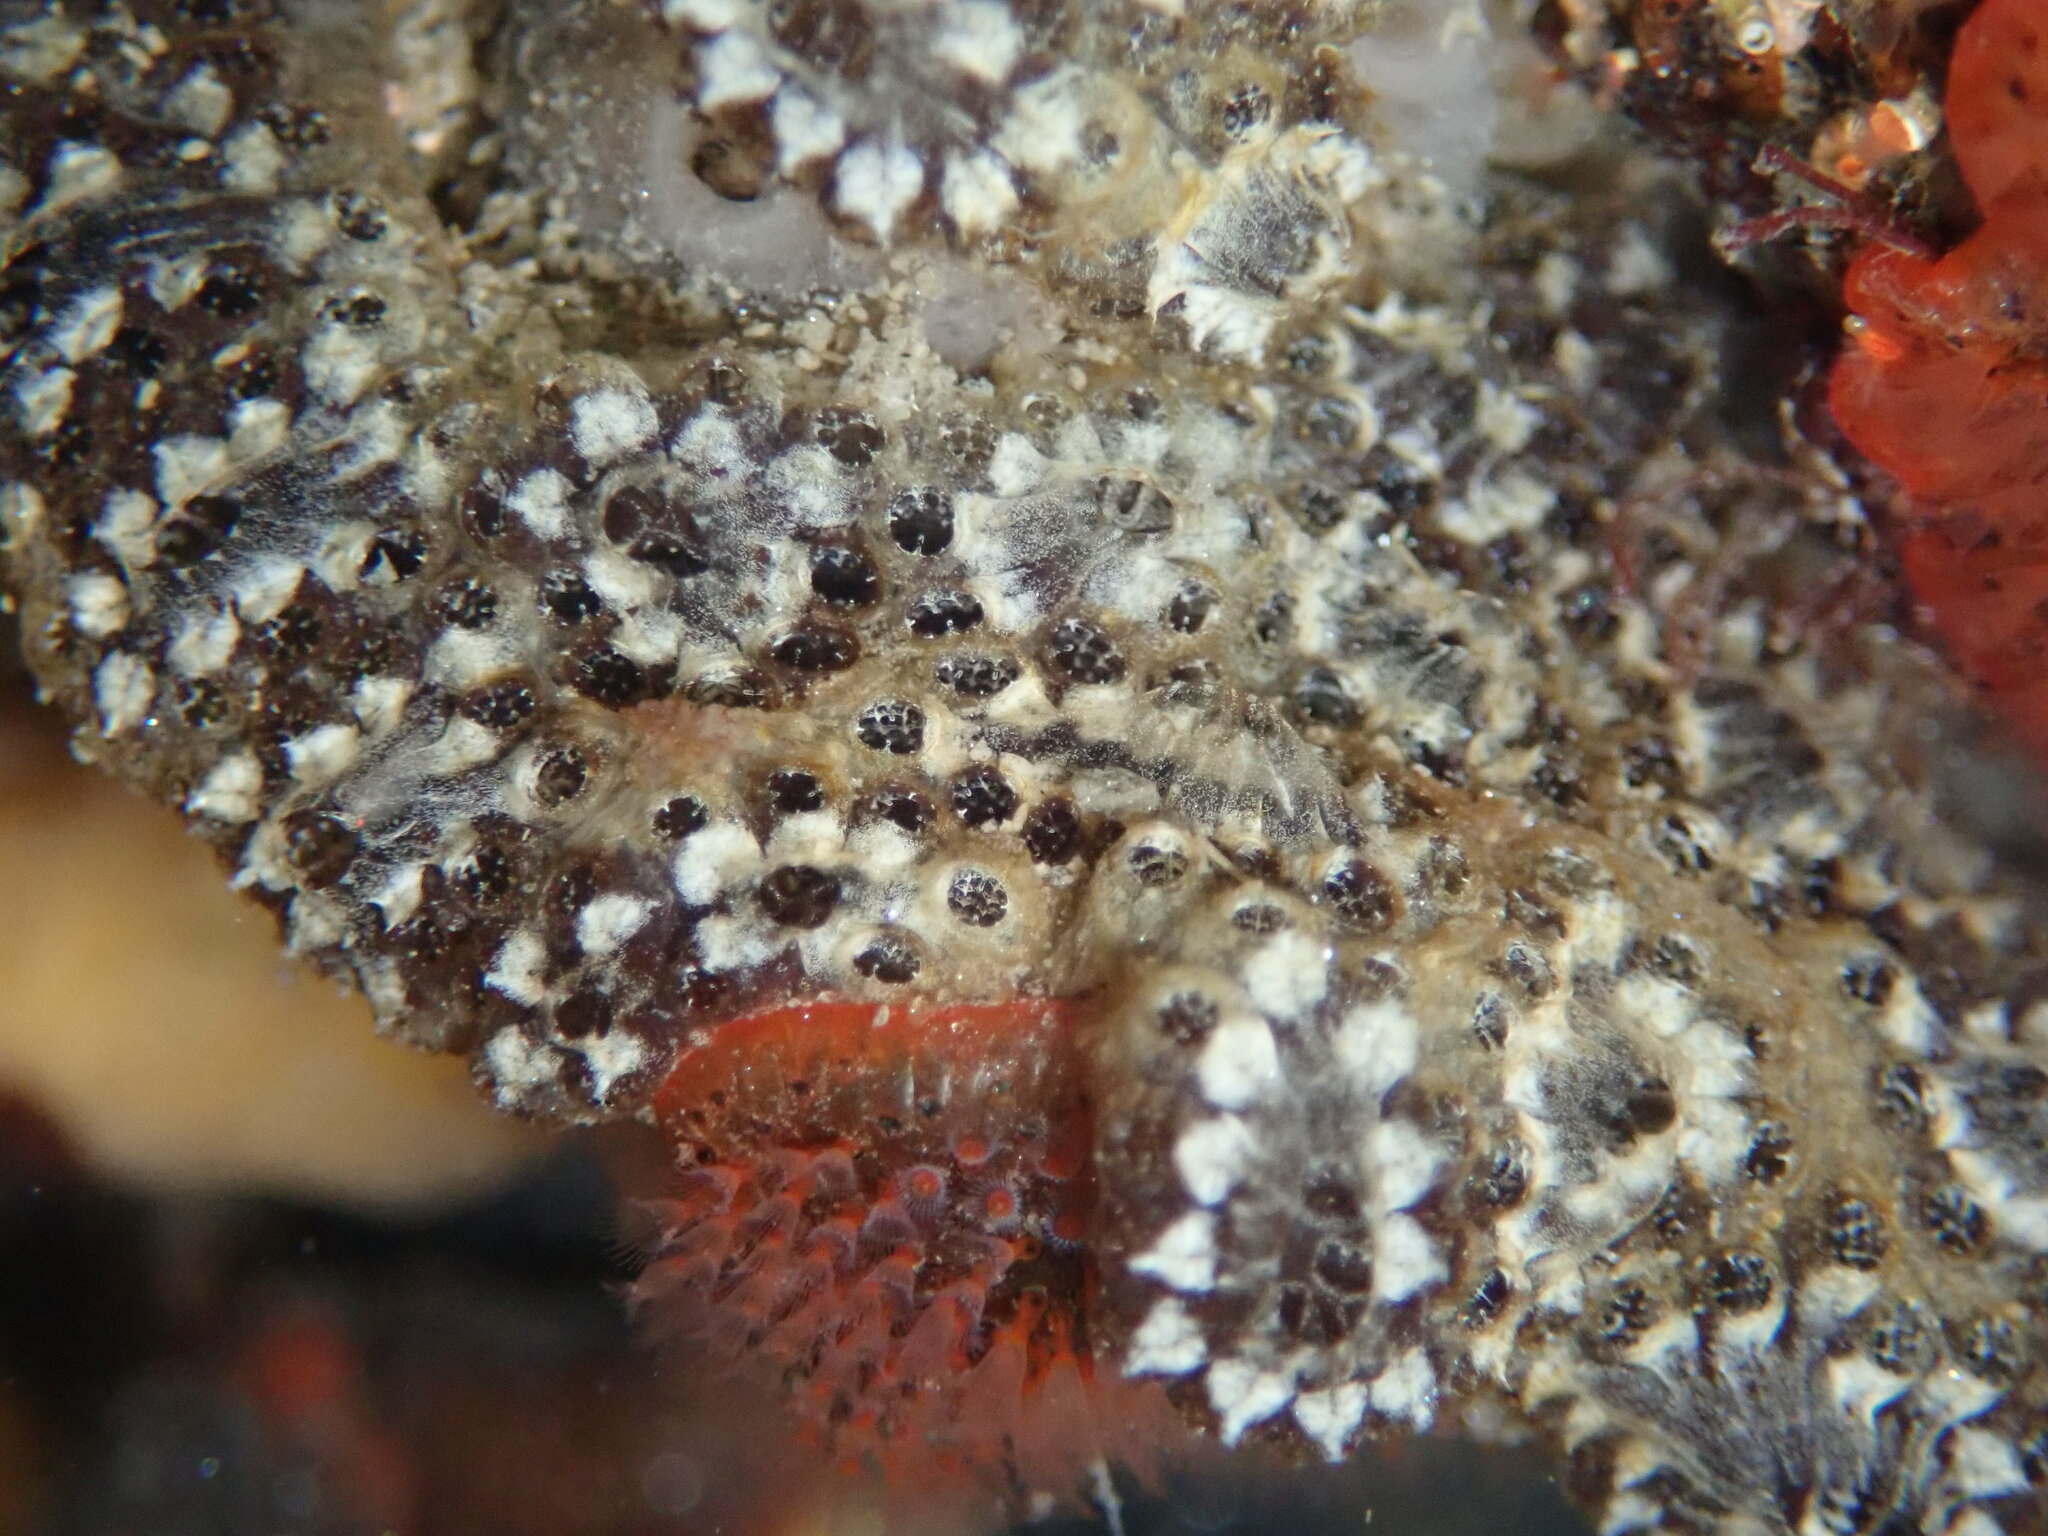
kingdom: Animalia
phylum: Chordata
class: Ascidiacea
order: Stolidobranchia
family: Styelidae
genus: Botryllus
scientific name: Botryllus schlosseri
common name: Golden star tunicate
